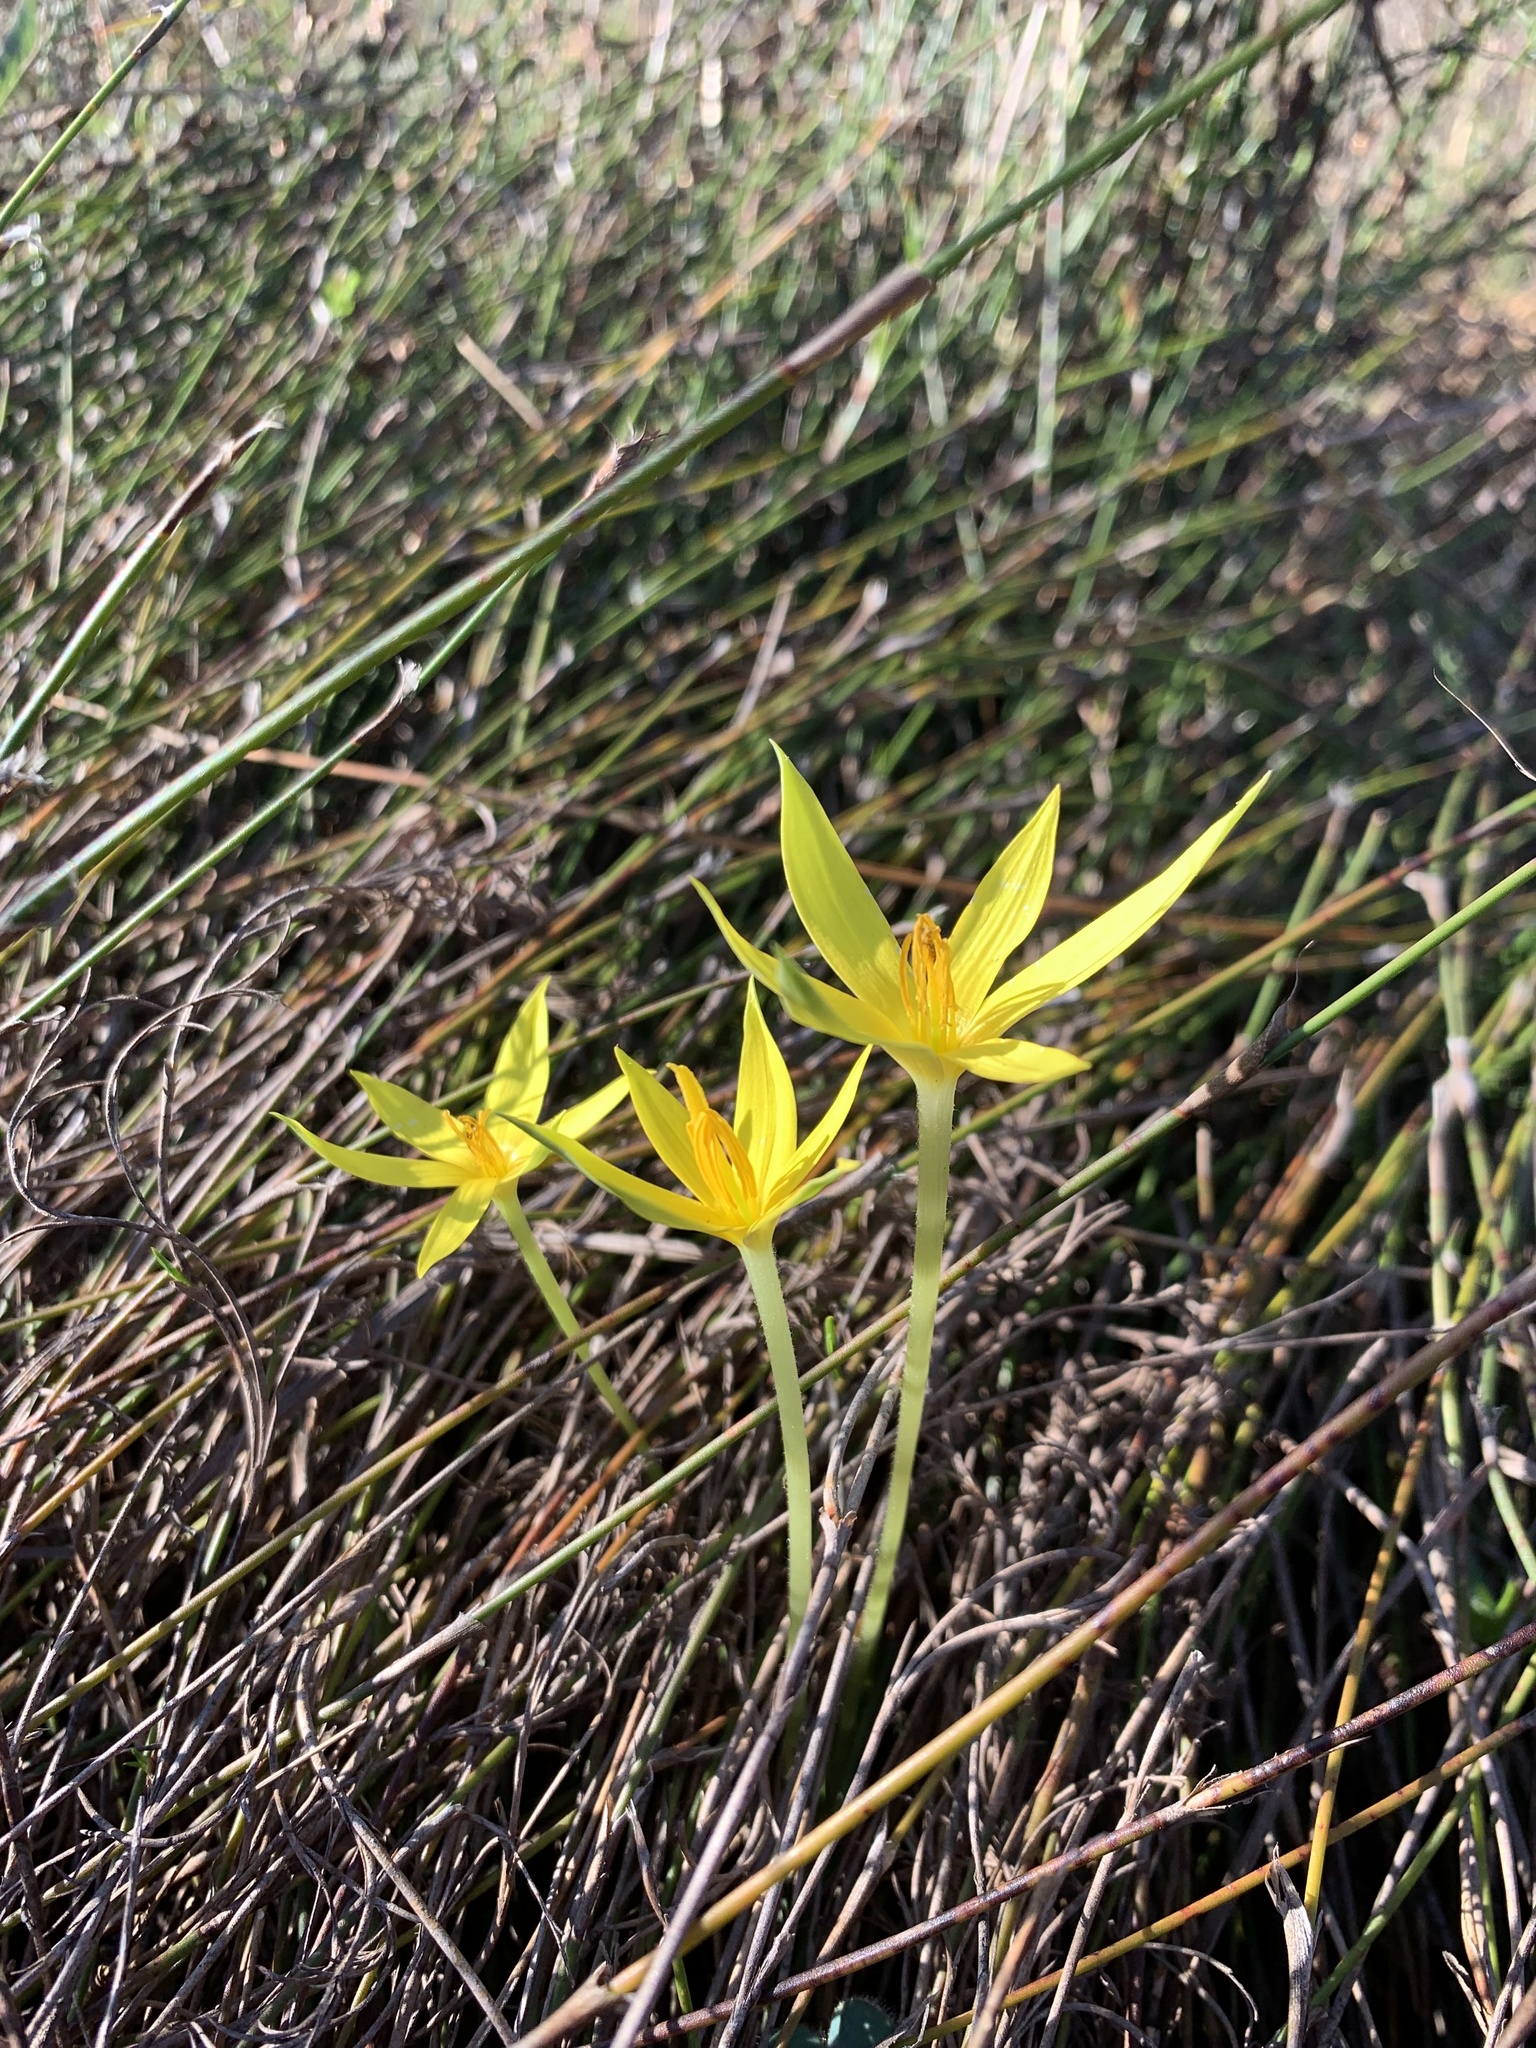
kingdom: Plantae
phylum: Tracheophyta
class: Liliopsida
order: Asparagales
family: Hypoxidaceae
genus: Empodium
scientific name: Empodium plicatum
